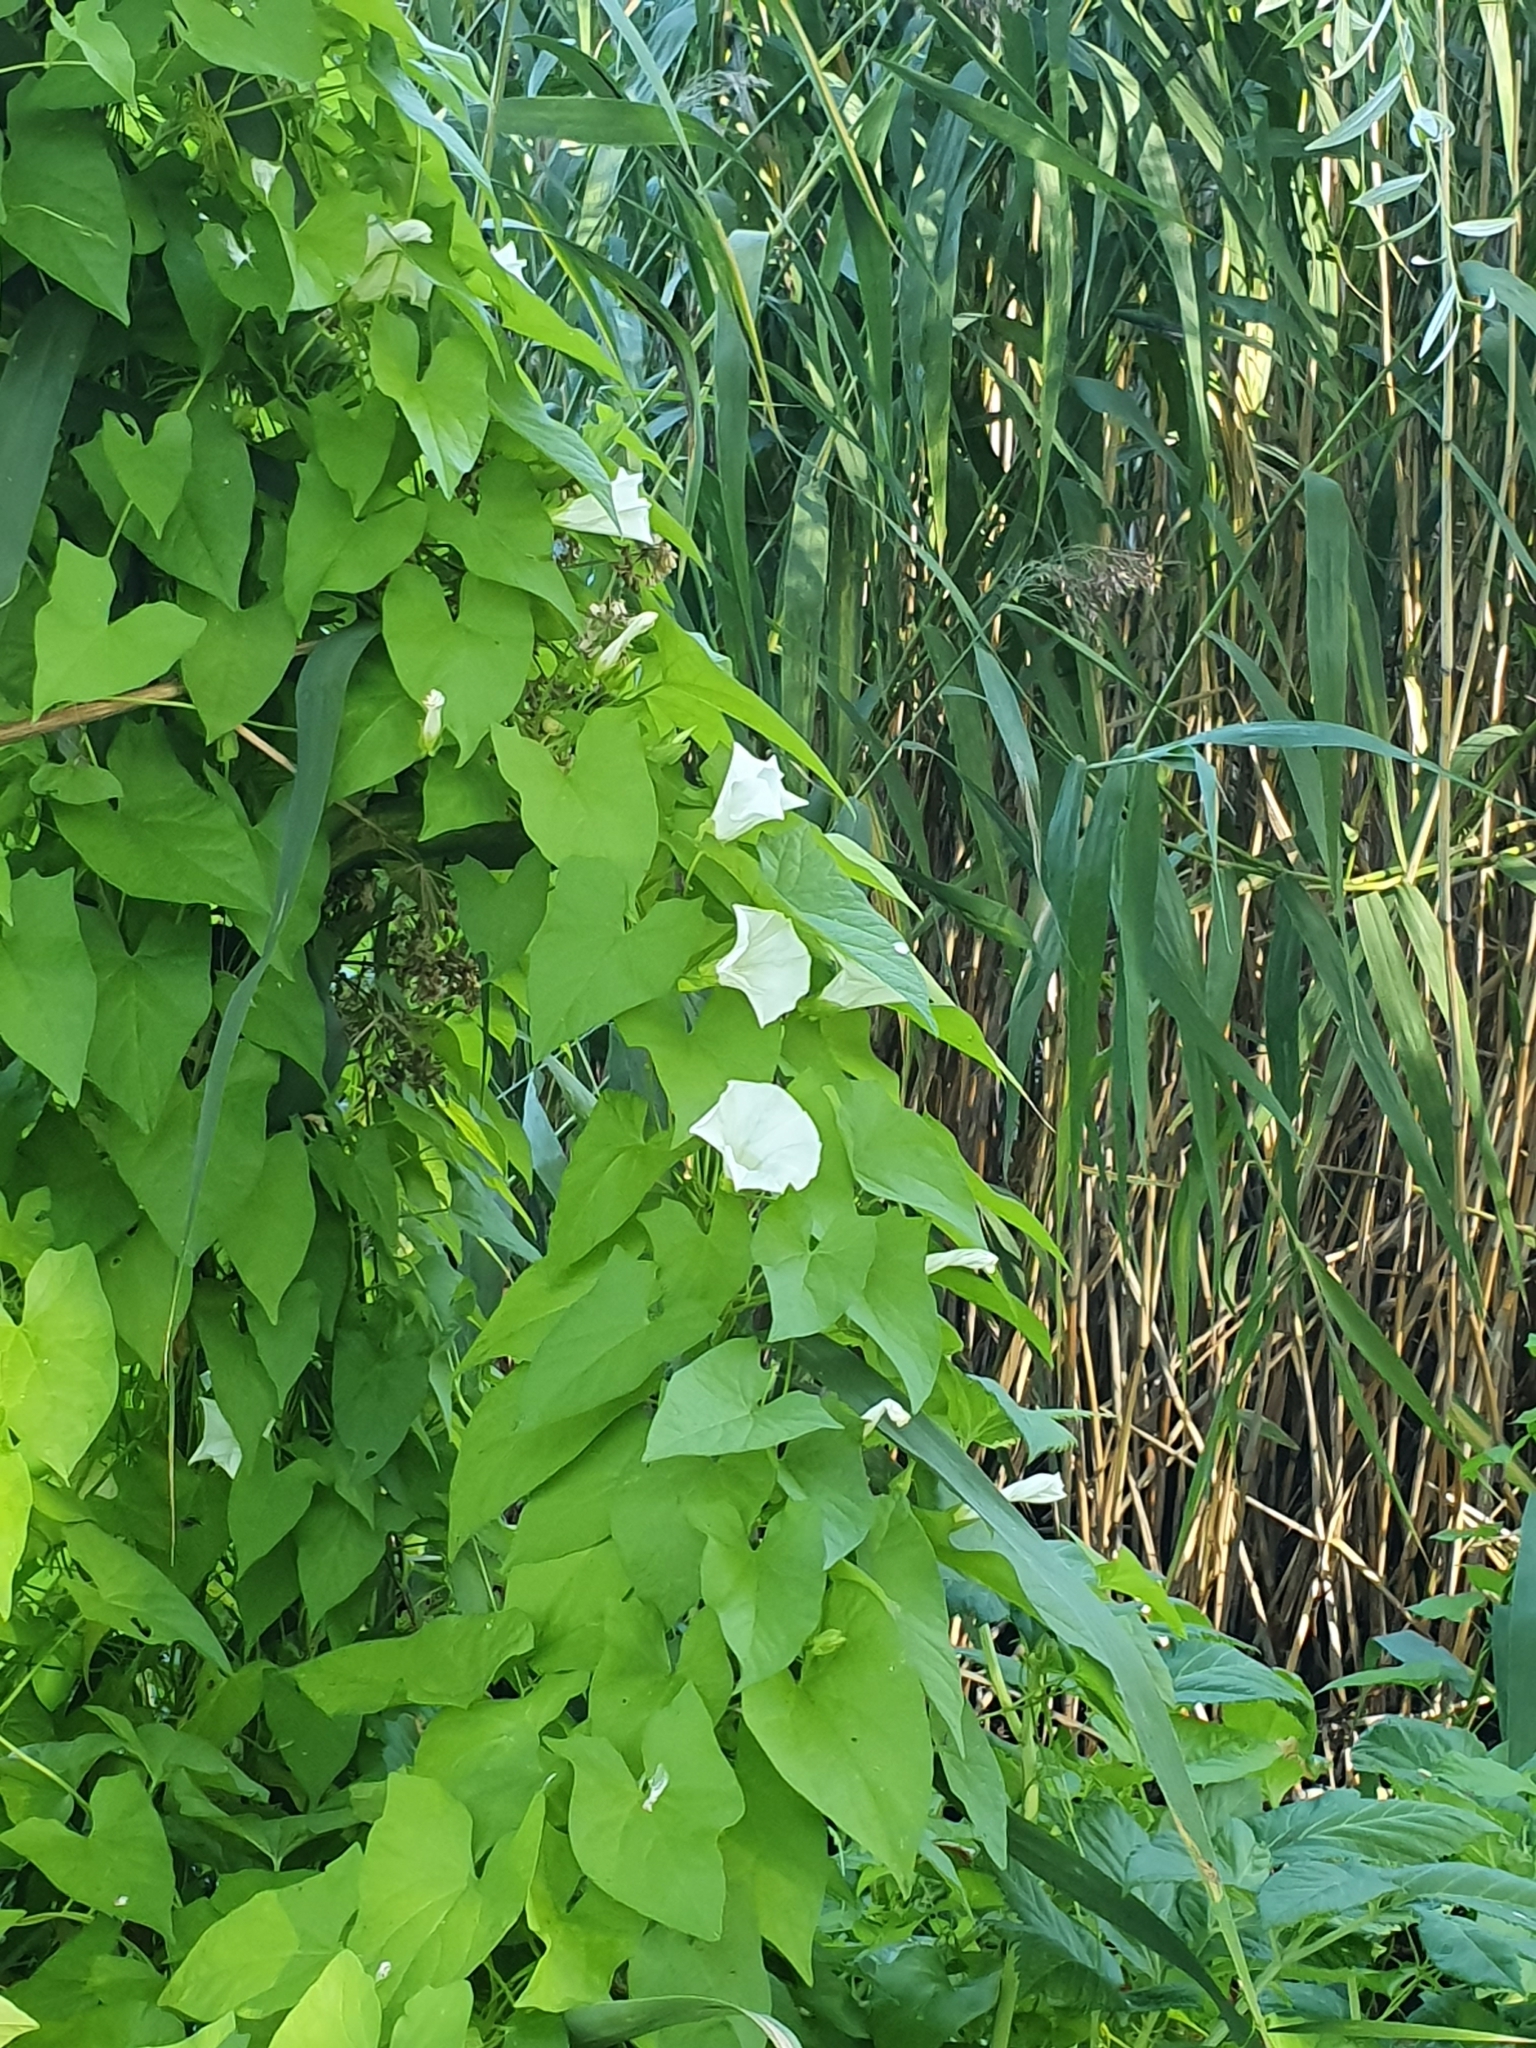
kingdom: Plantae
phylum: Tracheophyta
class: Magnoliopsida
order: Solanales
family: Convolvulaceae
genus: Calystegia
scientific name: Calystegia sepium
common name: Hedge bindweed
